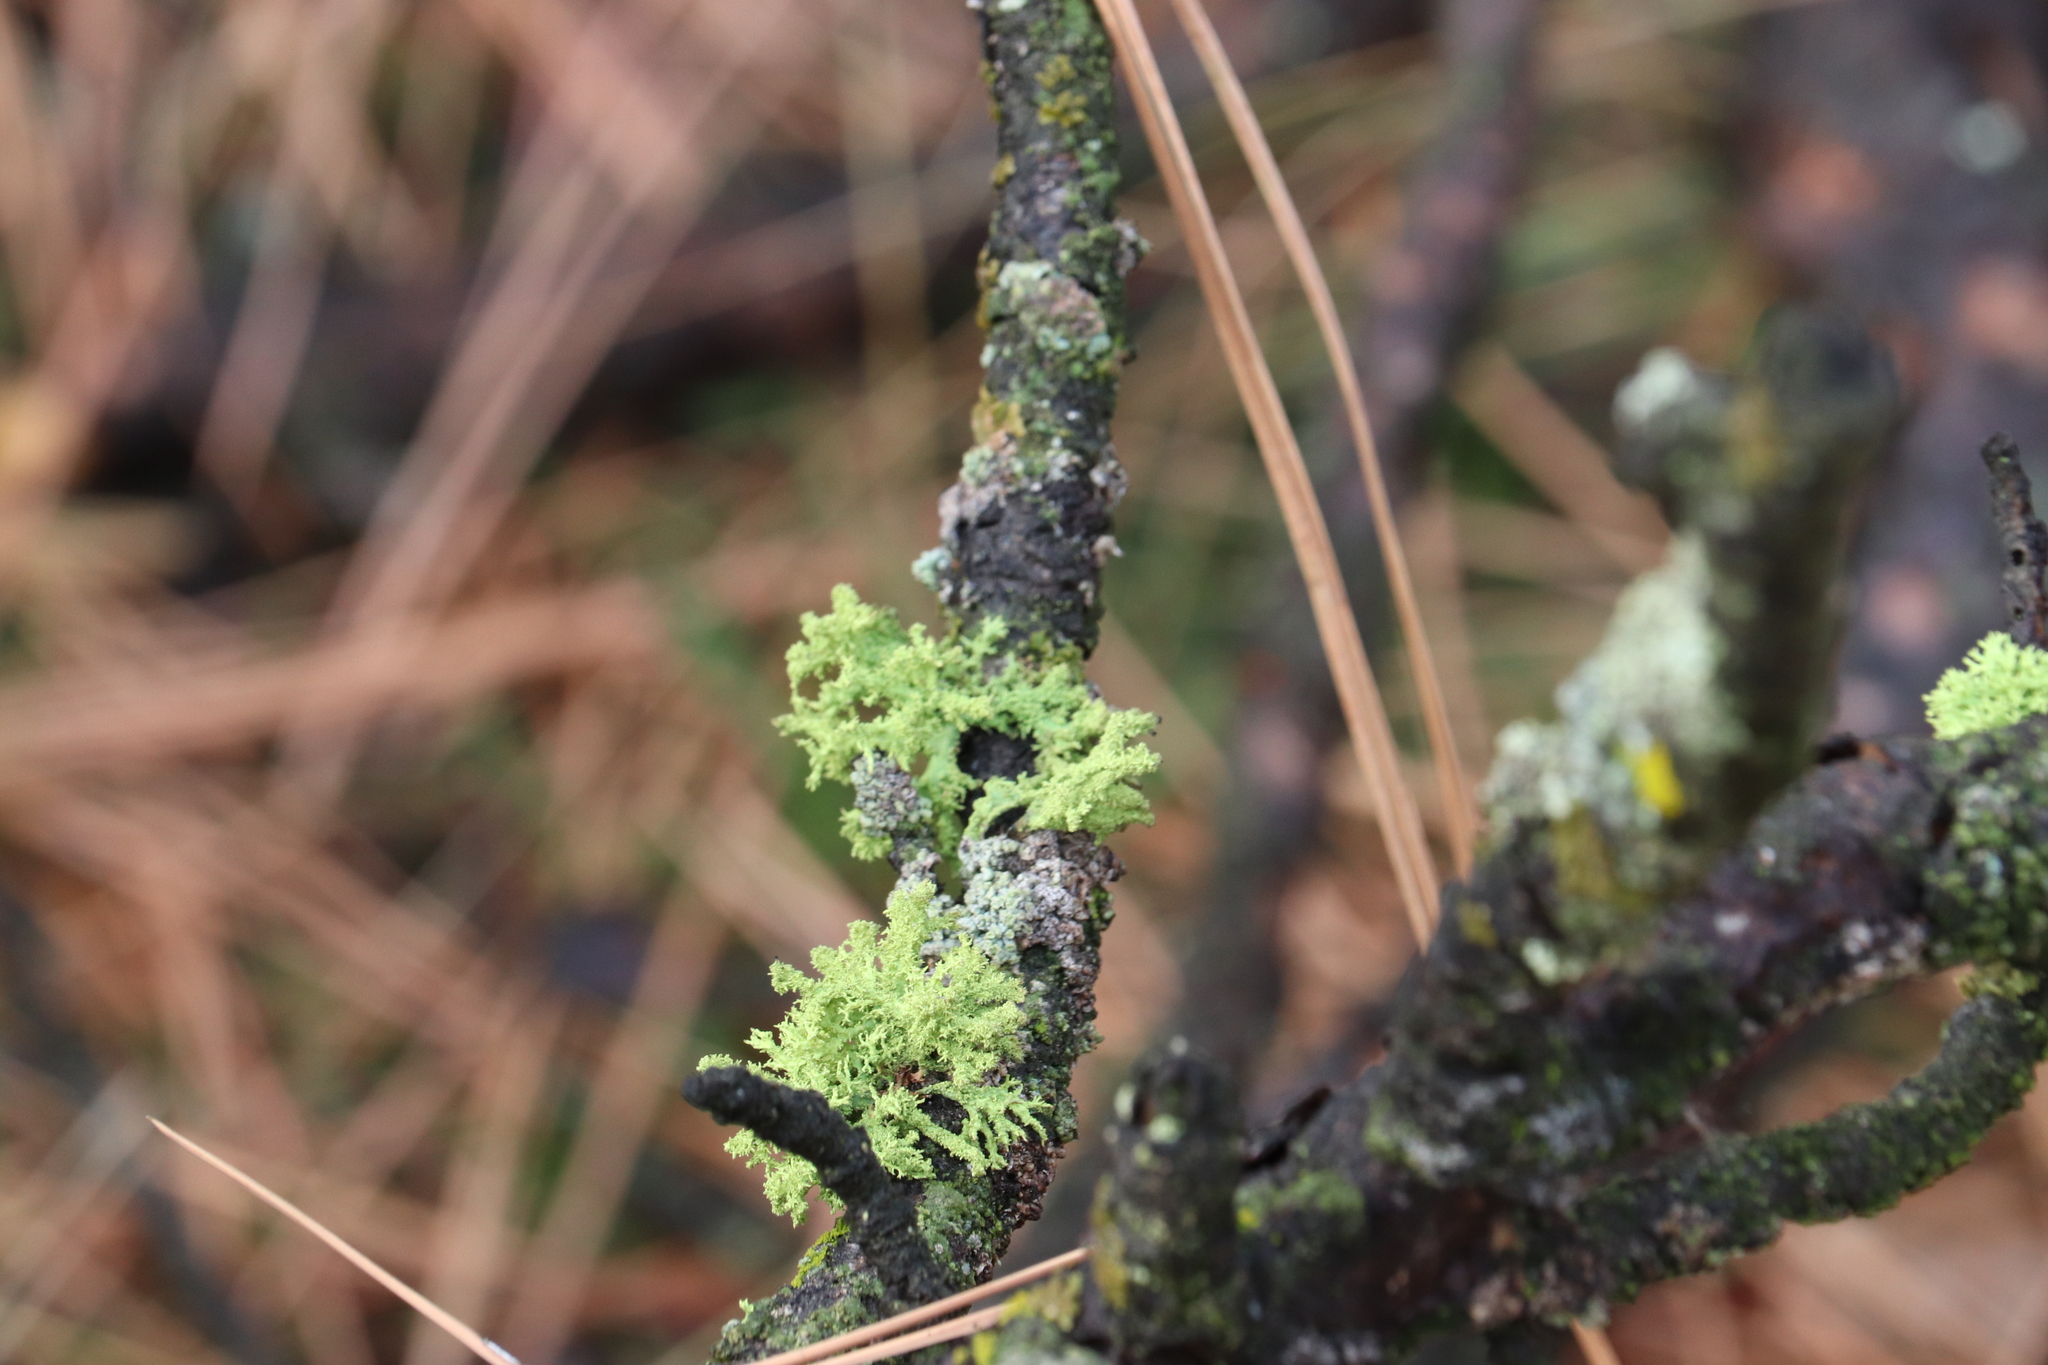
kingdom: Fungi
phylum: Ascomycota
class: Lecanoromycetes
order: Lecanorales
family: Parmeliaceae
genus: Letharia
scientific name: Letharia vulpina
